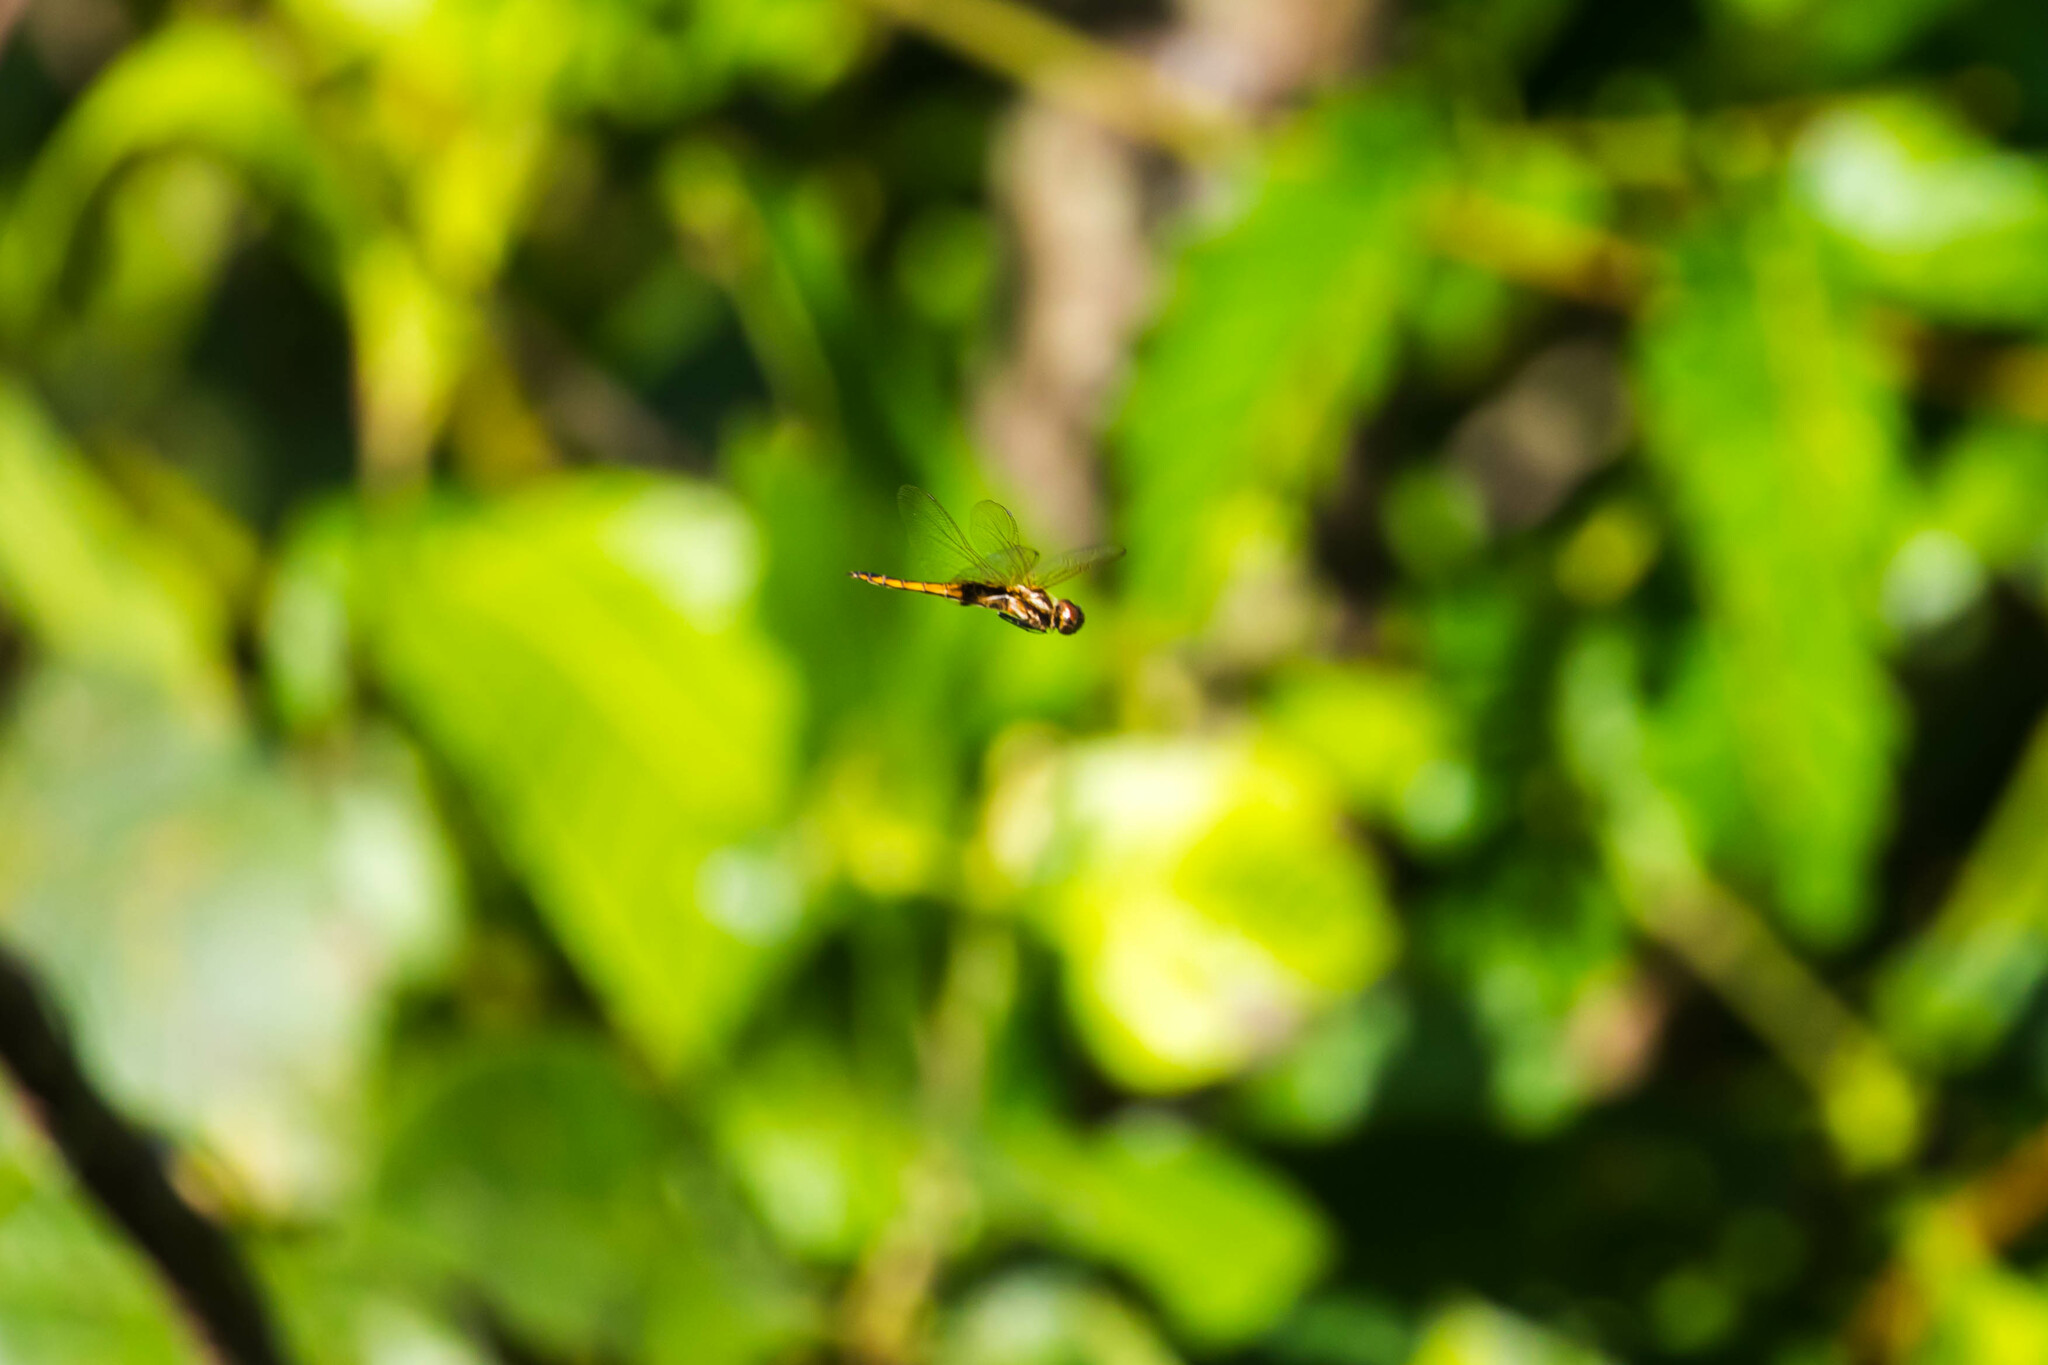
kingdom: Animalia
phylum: Arthropoda
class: Insecta
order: Odonata
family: Libellulidae
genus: Miathyria
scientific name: Miathyria marcella
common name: Hyacinth glider
